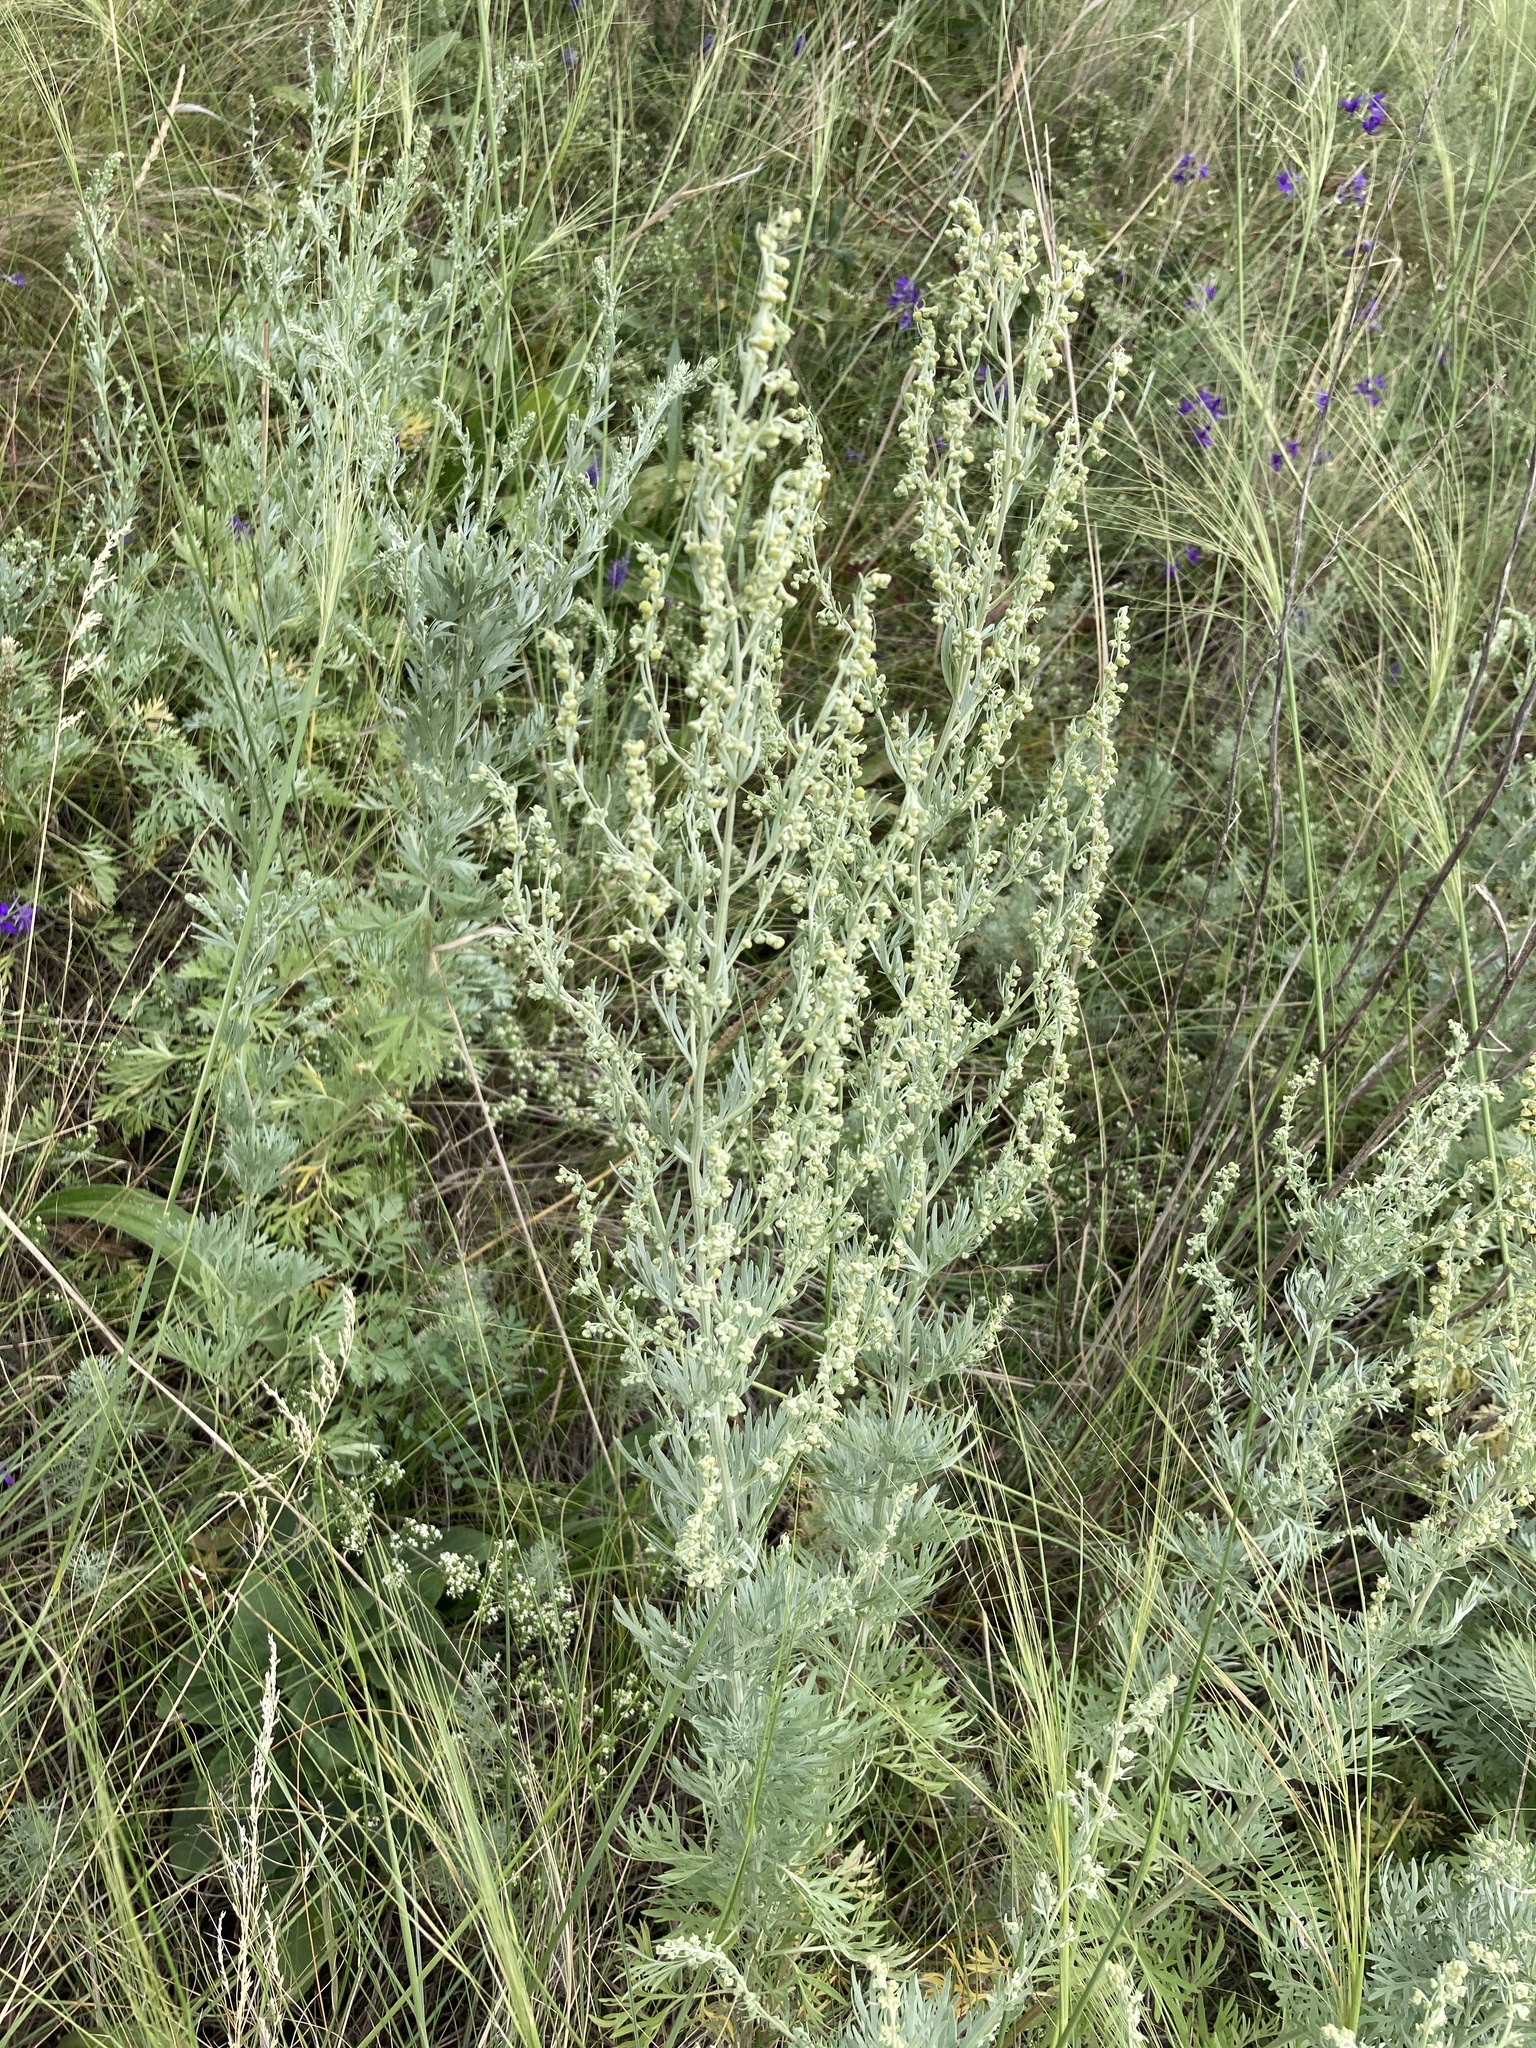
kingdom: Plantae
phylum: Tracheophyta
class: Magnoliopsida
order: Asterales
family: Asteraceae
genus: Artemisia
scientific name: Artemisia absinthium
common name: Wormwood
